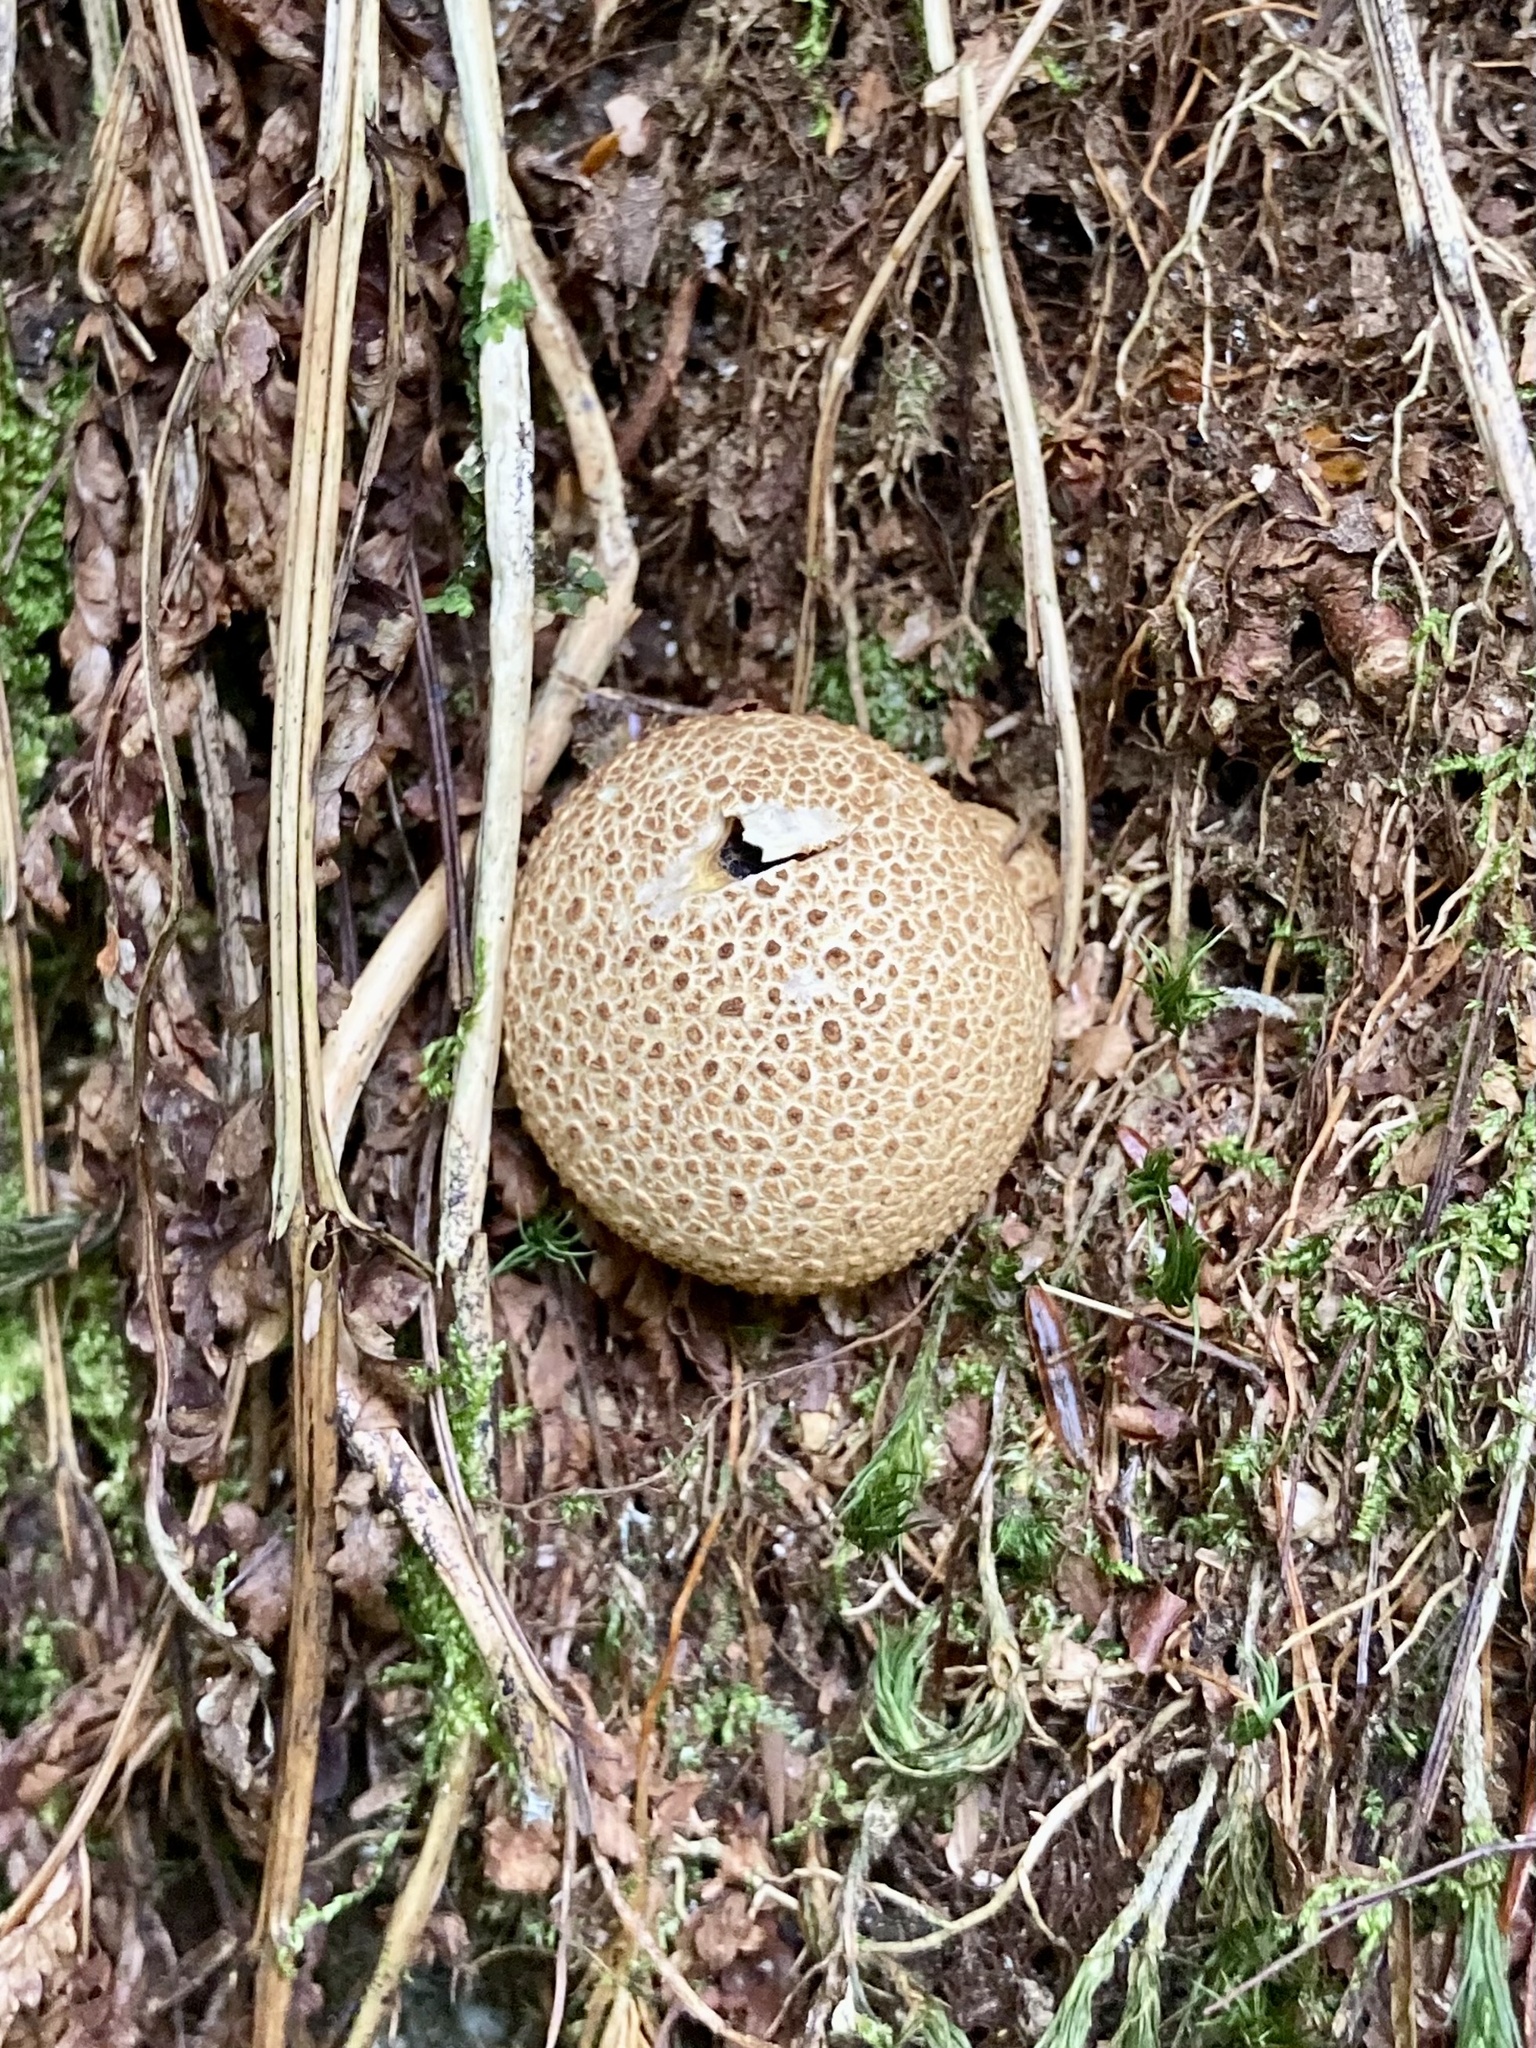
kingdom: Fungi
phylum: Basidiomycota
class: Agaricomycetes
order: Boletales
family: Sclerodermataceae
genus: Scleroderma
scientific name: Scleroderma citrinum
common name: Common earthball
